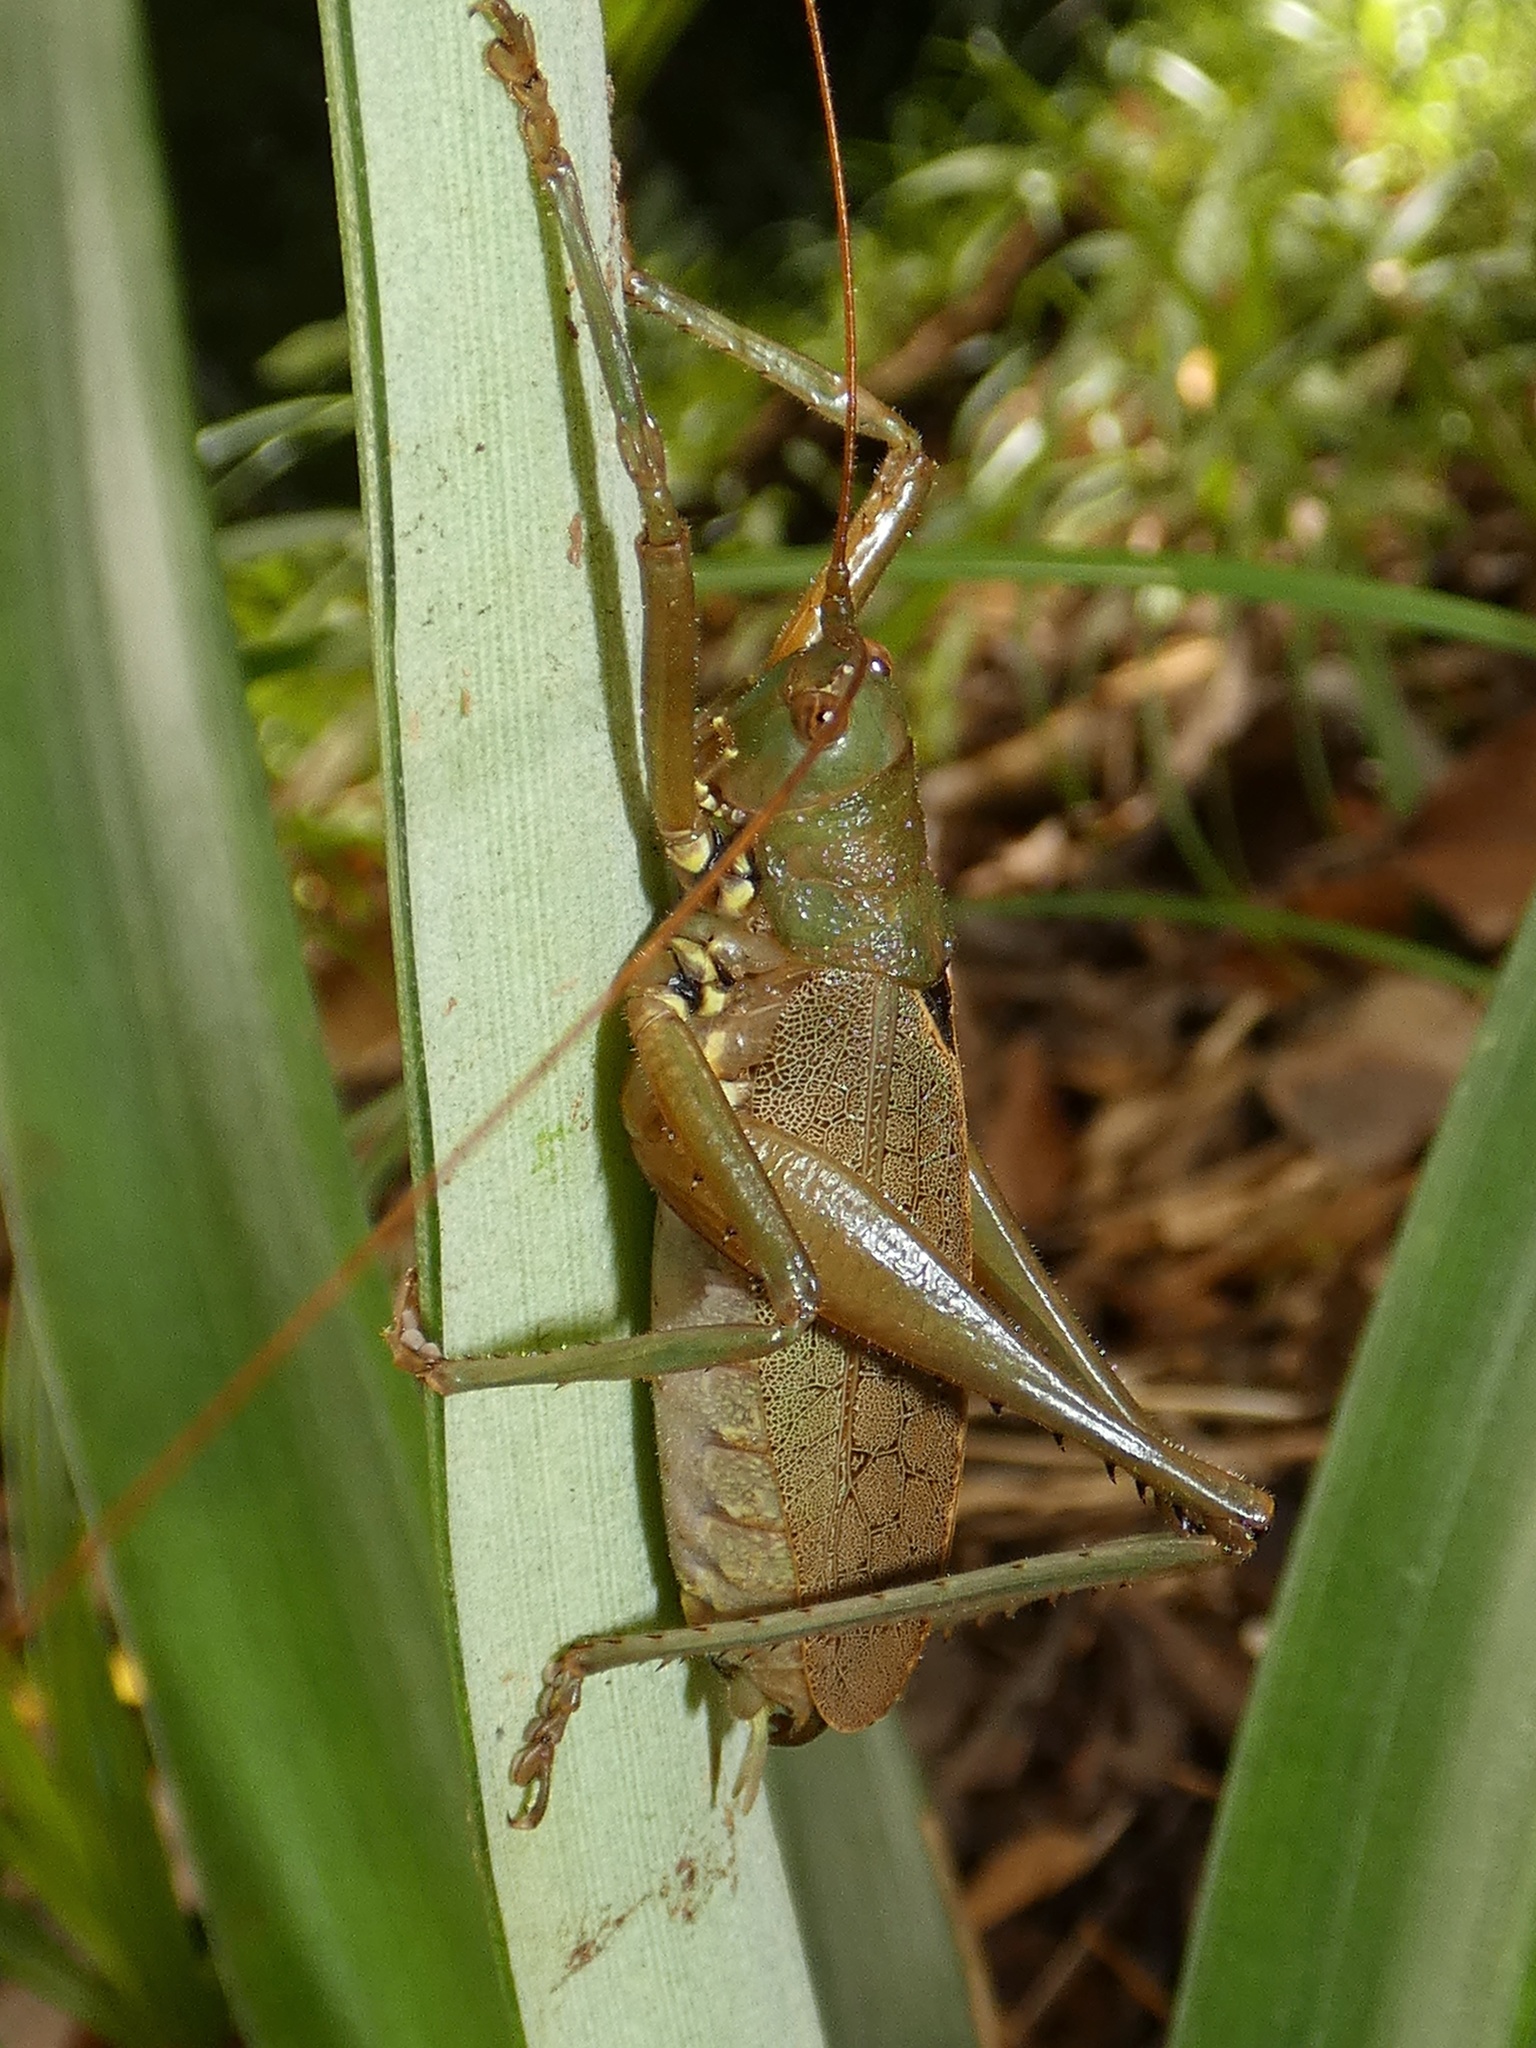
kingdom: Animalia
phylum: Arthropoda
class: Insecta
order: Orthoptera
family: Tettigoniidae
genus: Idiarthron
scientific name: Idiarthron subnotatum
